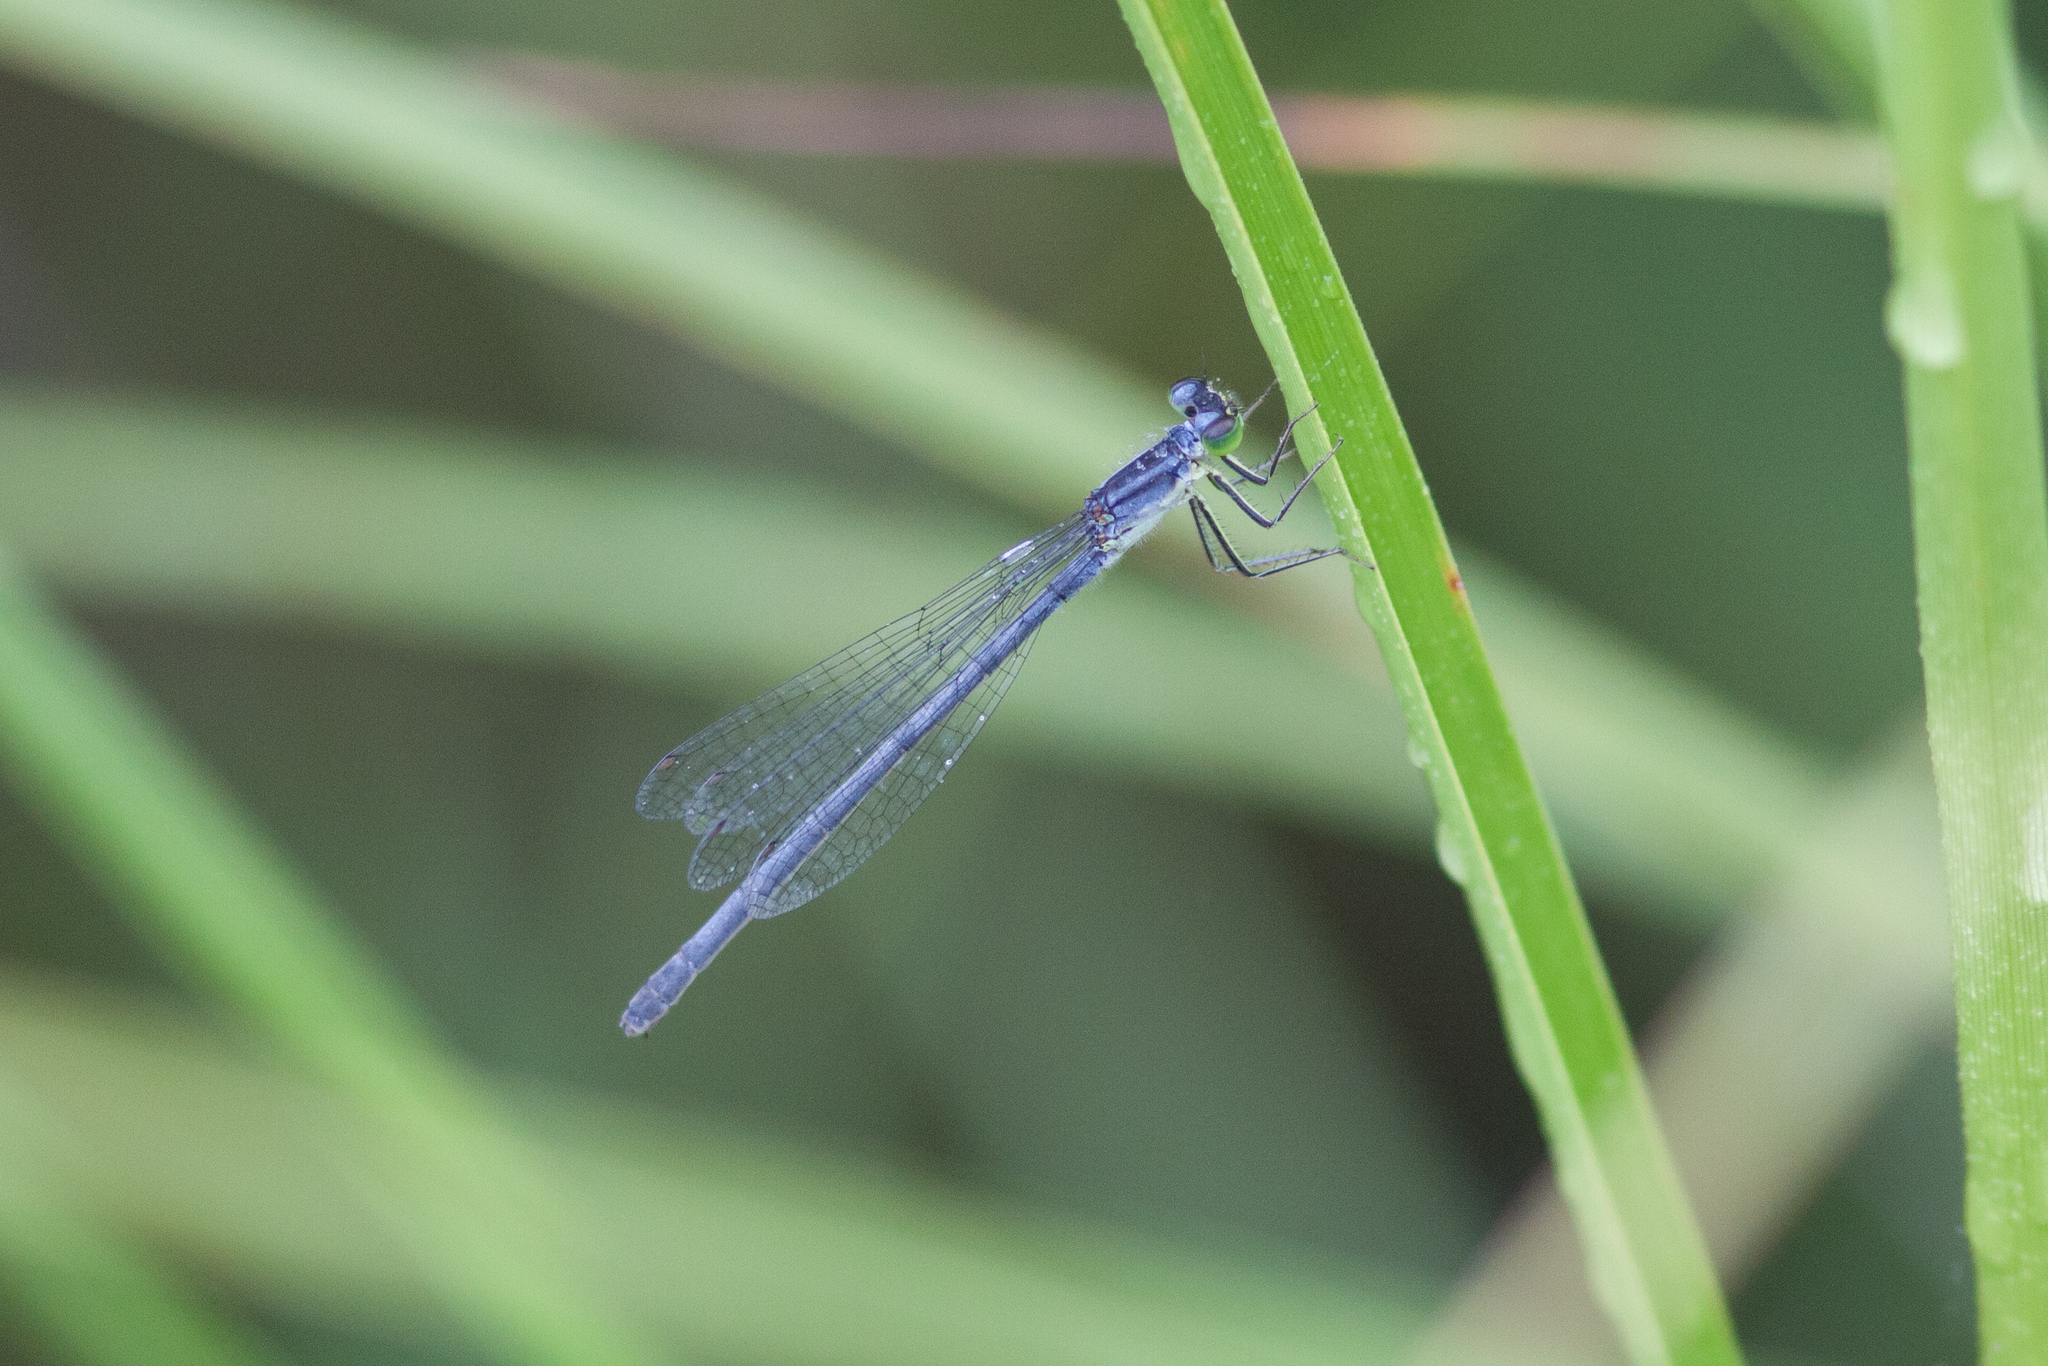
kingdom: Animalia
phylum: Arthropoda
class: Insecta
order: Odonata
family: Coenagrionidae
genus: Ischnura
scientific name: Ischnura verticalis
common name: Eastern forktail
